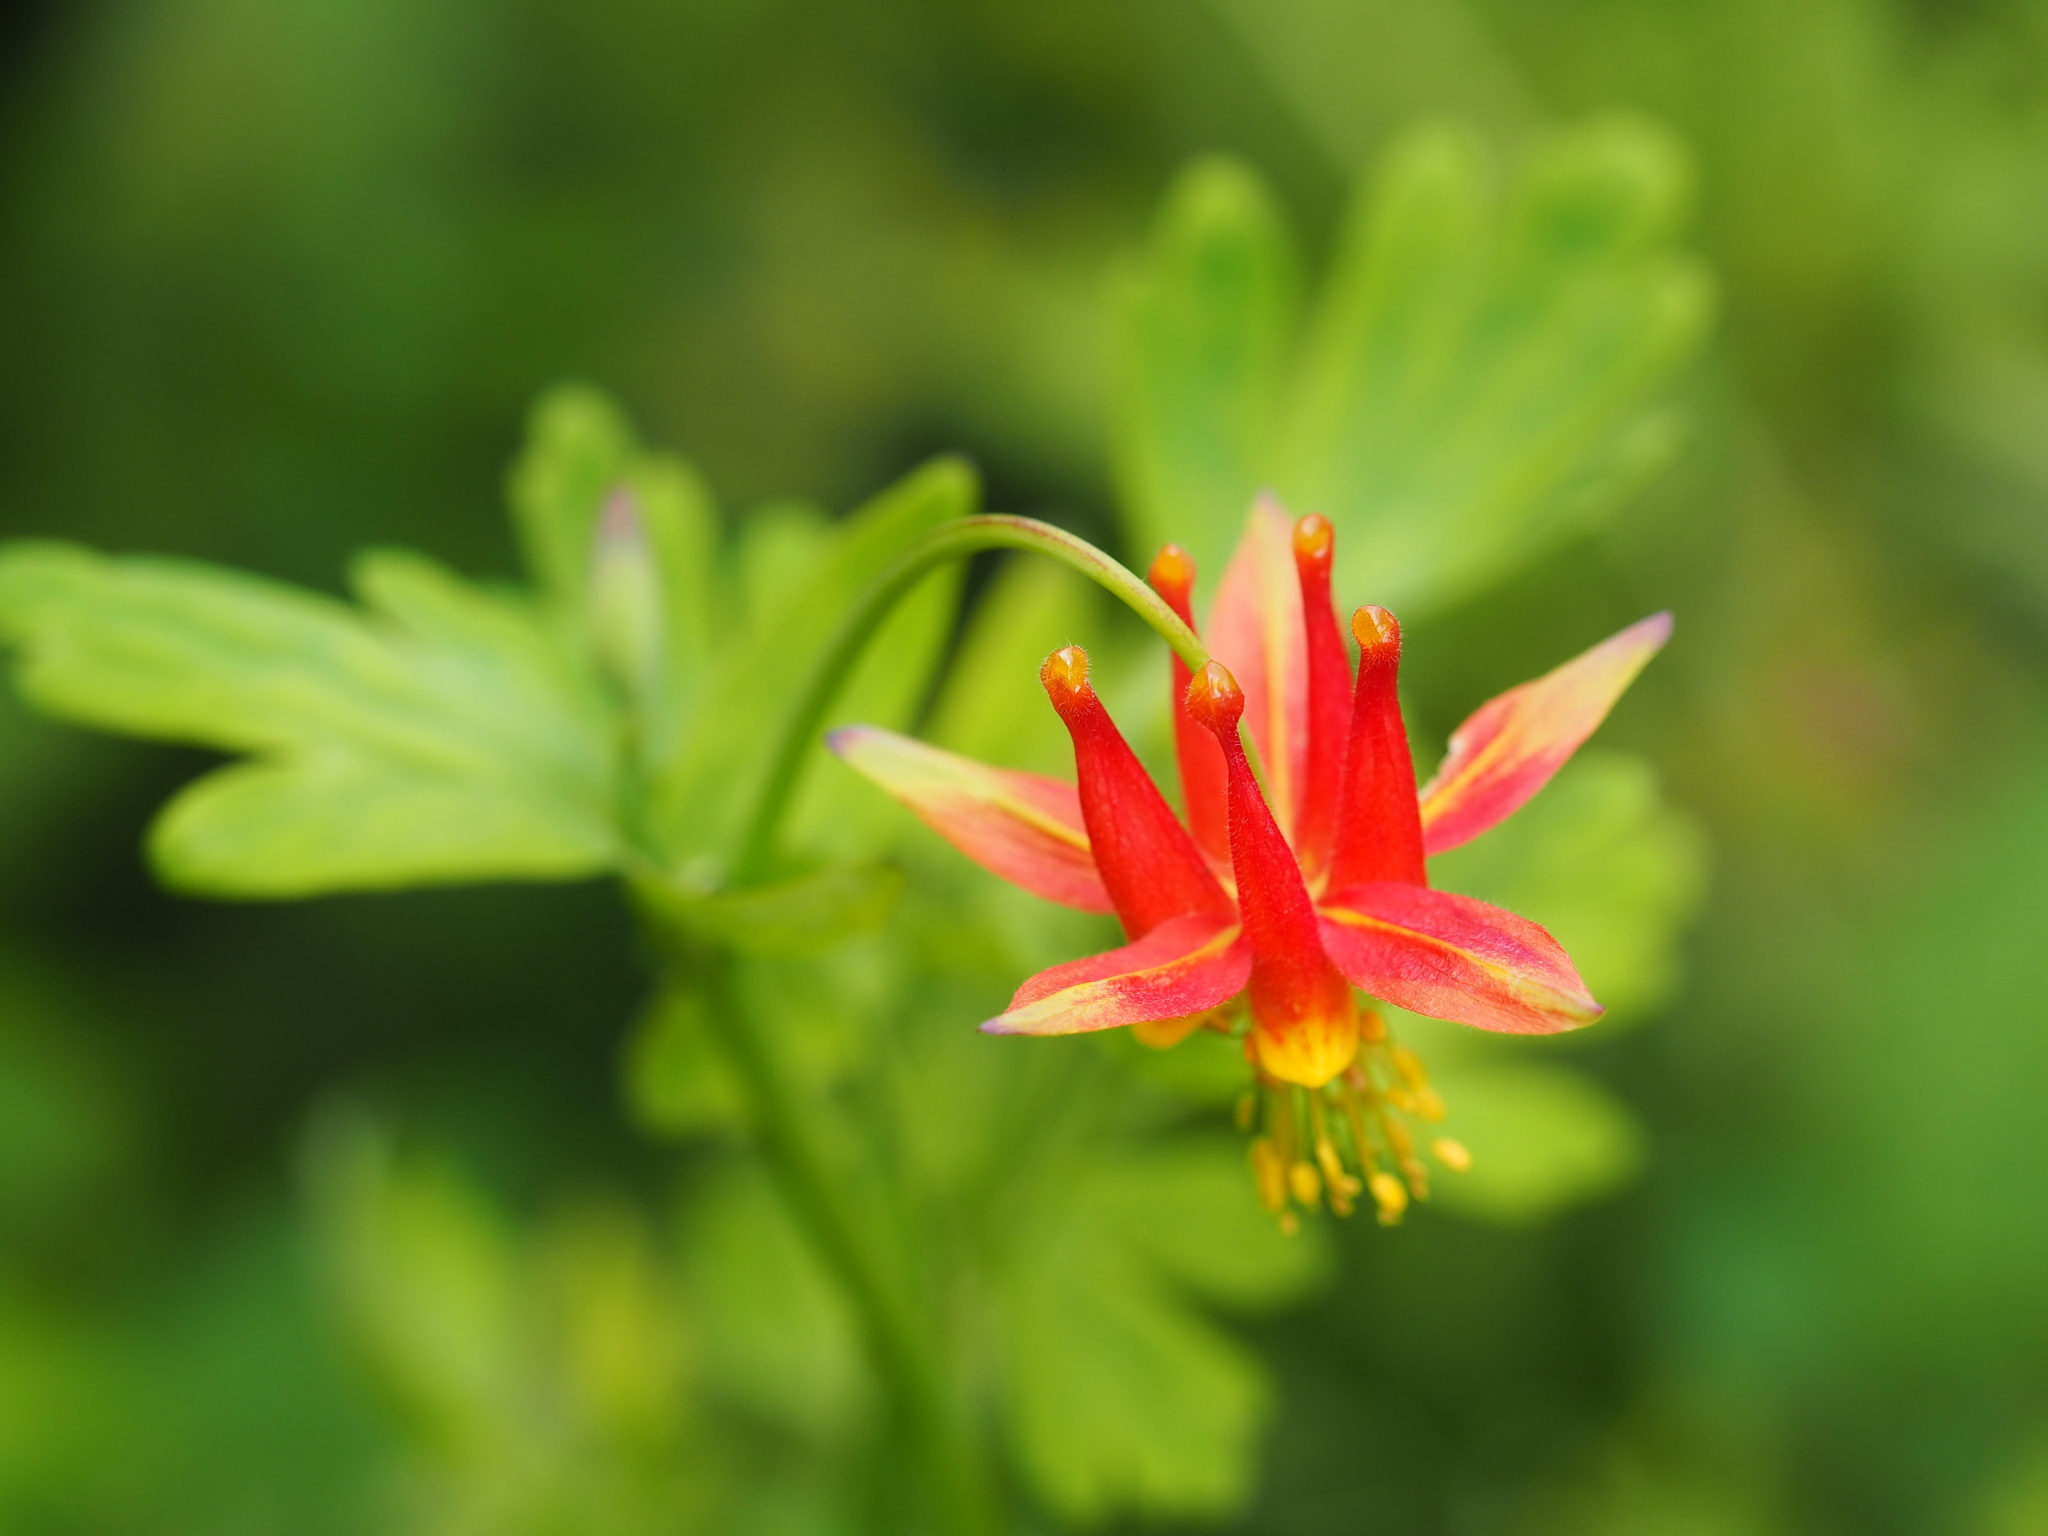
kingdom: Plantae
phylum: Tracheophyta
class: Magnoliopsida
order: Ranunculales
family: Ranunculaceae
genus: Aquilegia
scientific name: Aquilegia formosa
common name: Sitka columbine
